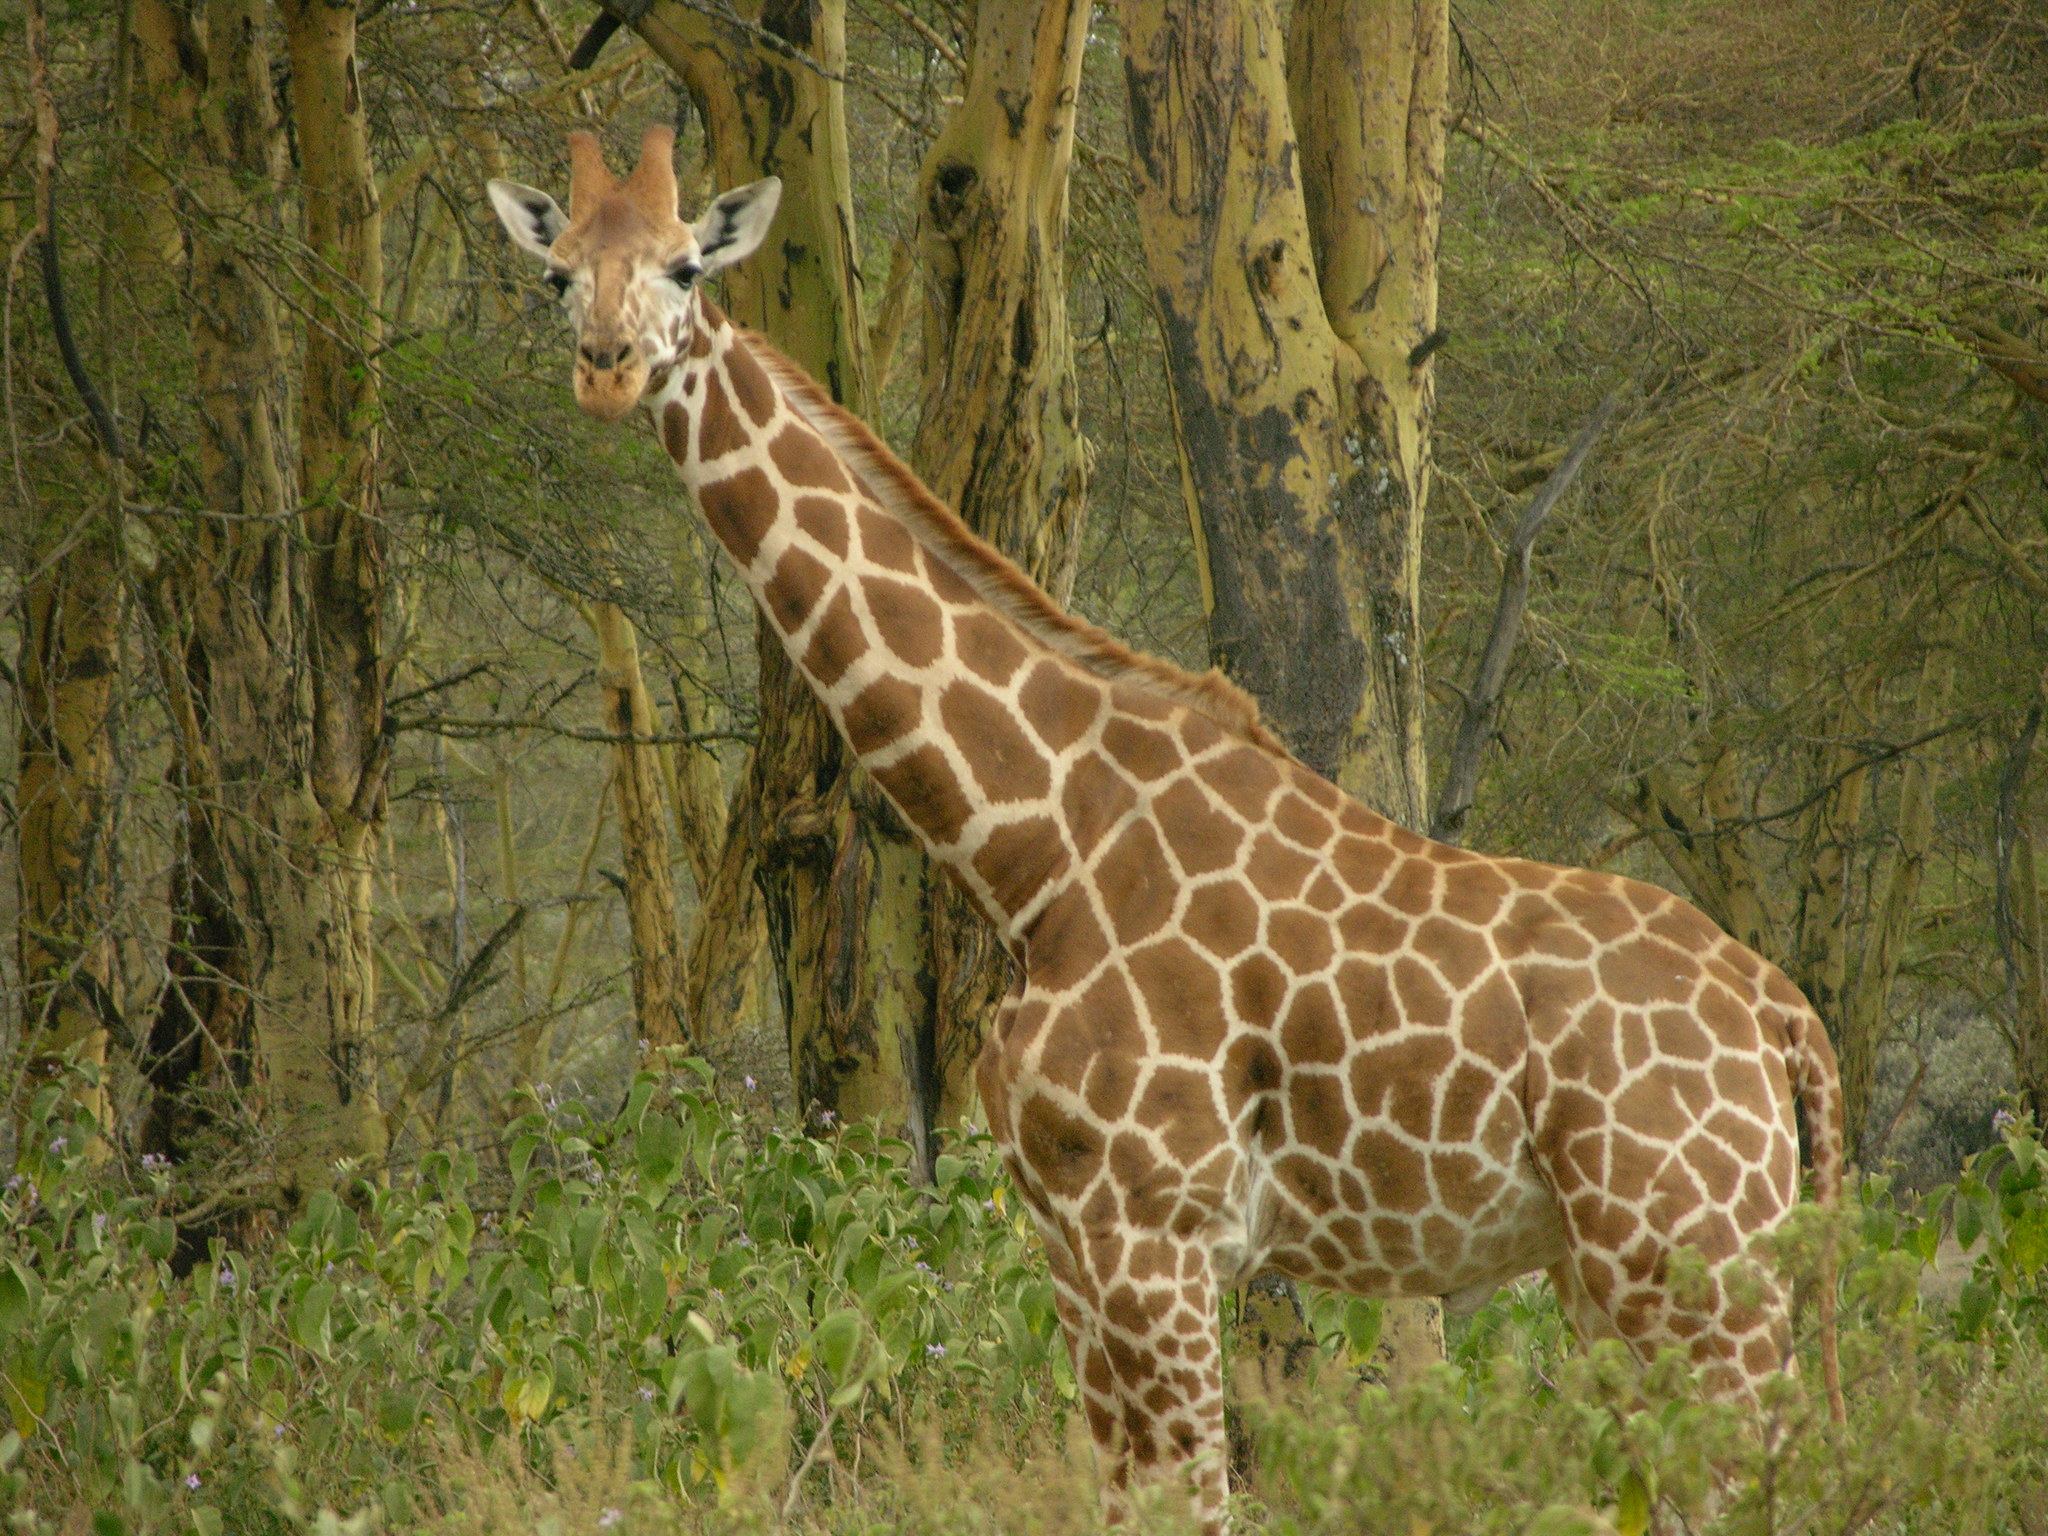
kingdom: Animalia
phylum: Chordata
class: Mammalia
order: Artiodactyla
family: Giraffidae
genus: Giraffa
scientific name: Giraffa camelopardalis
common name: Giraffe
